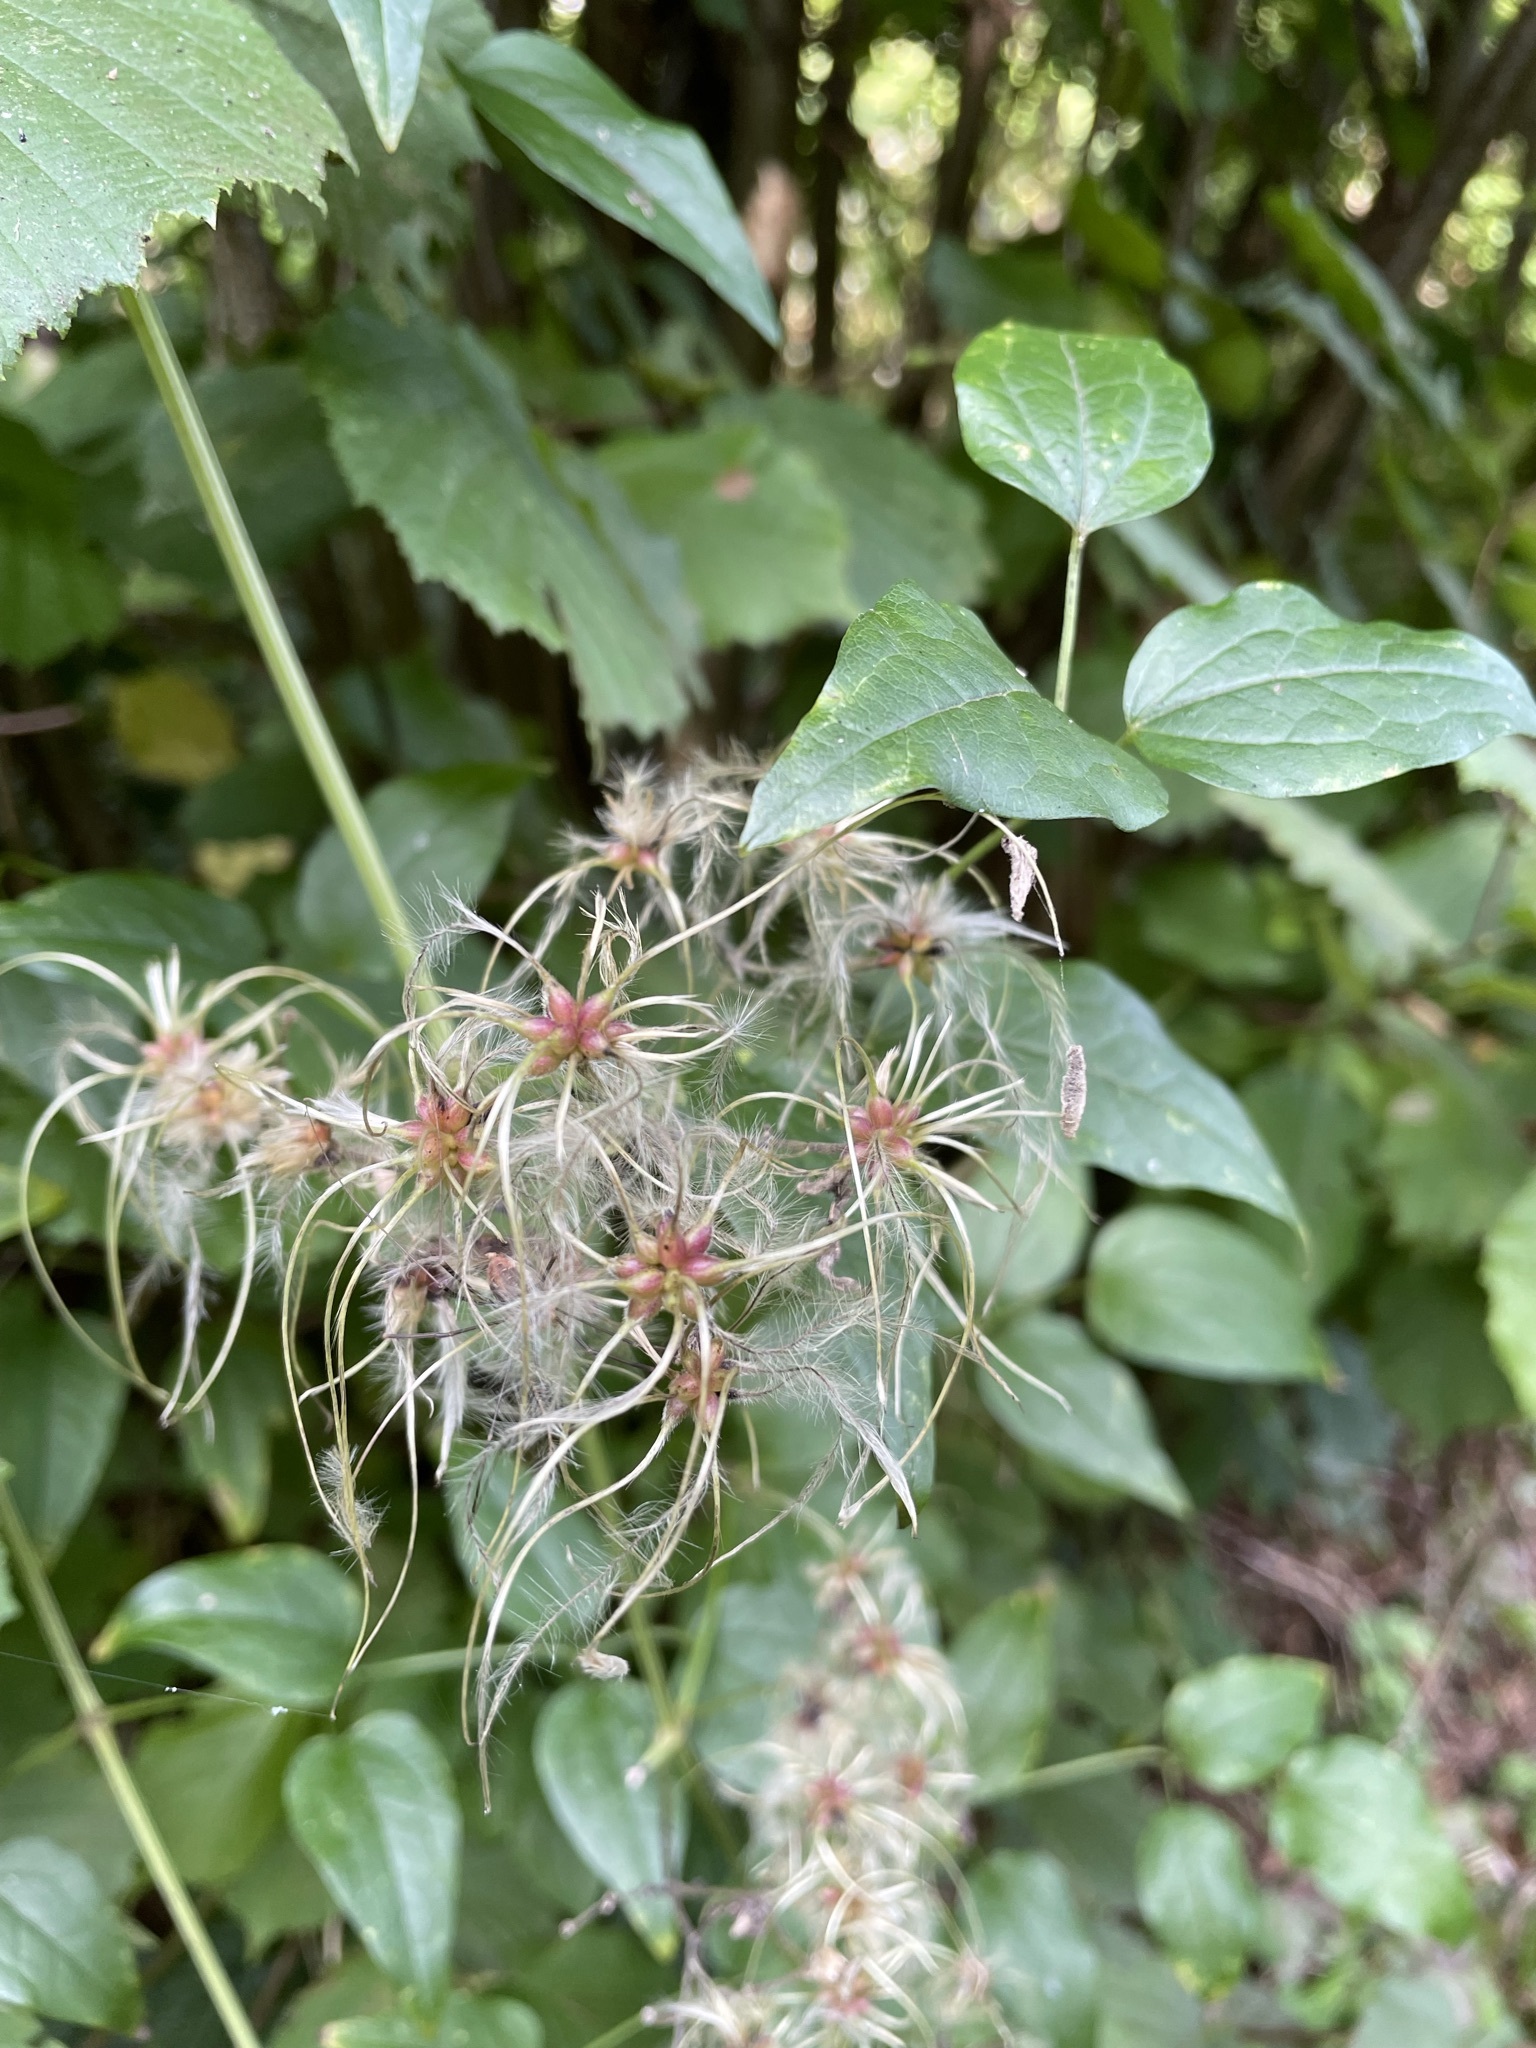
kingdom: Plantae
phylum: Tracheophyta
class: Magnoliopsida
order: Ranunculales
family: Ranunculaceae
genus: Clematis
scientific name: Clematis vitalba
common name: Evergreen clematis
